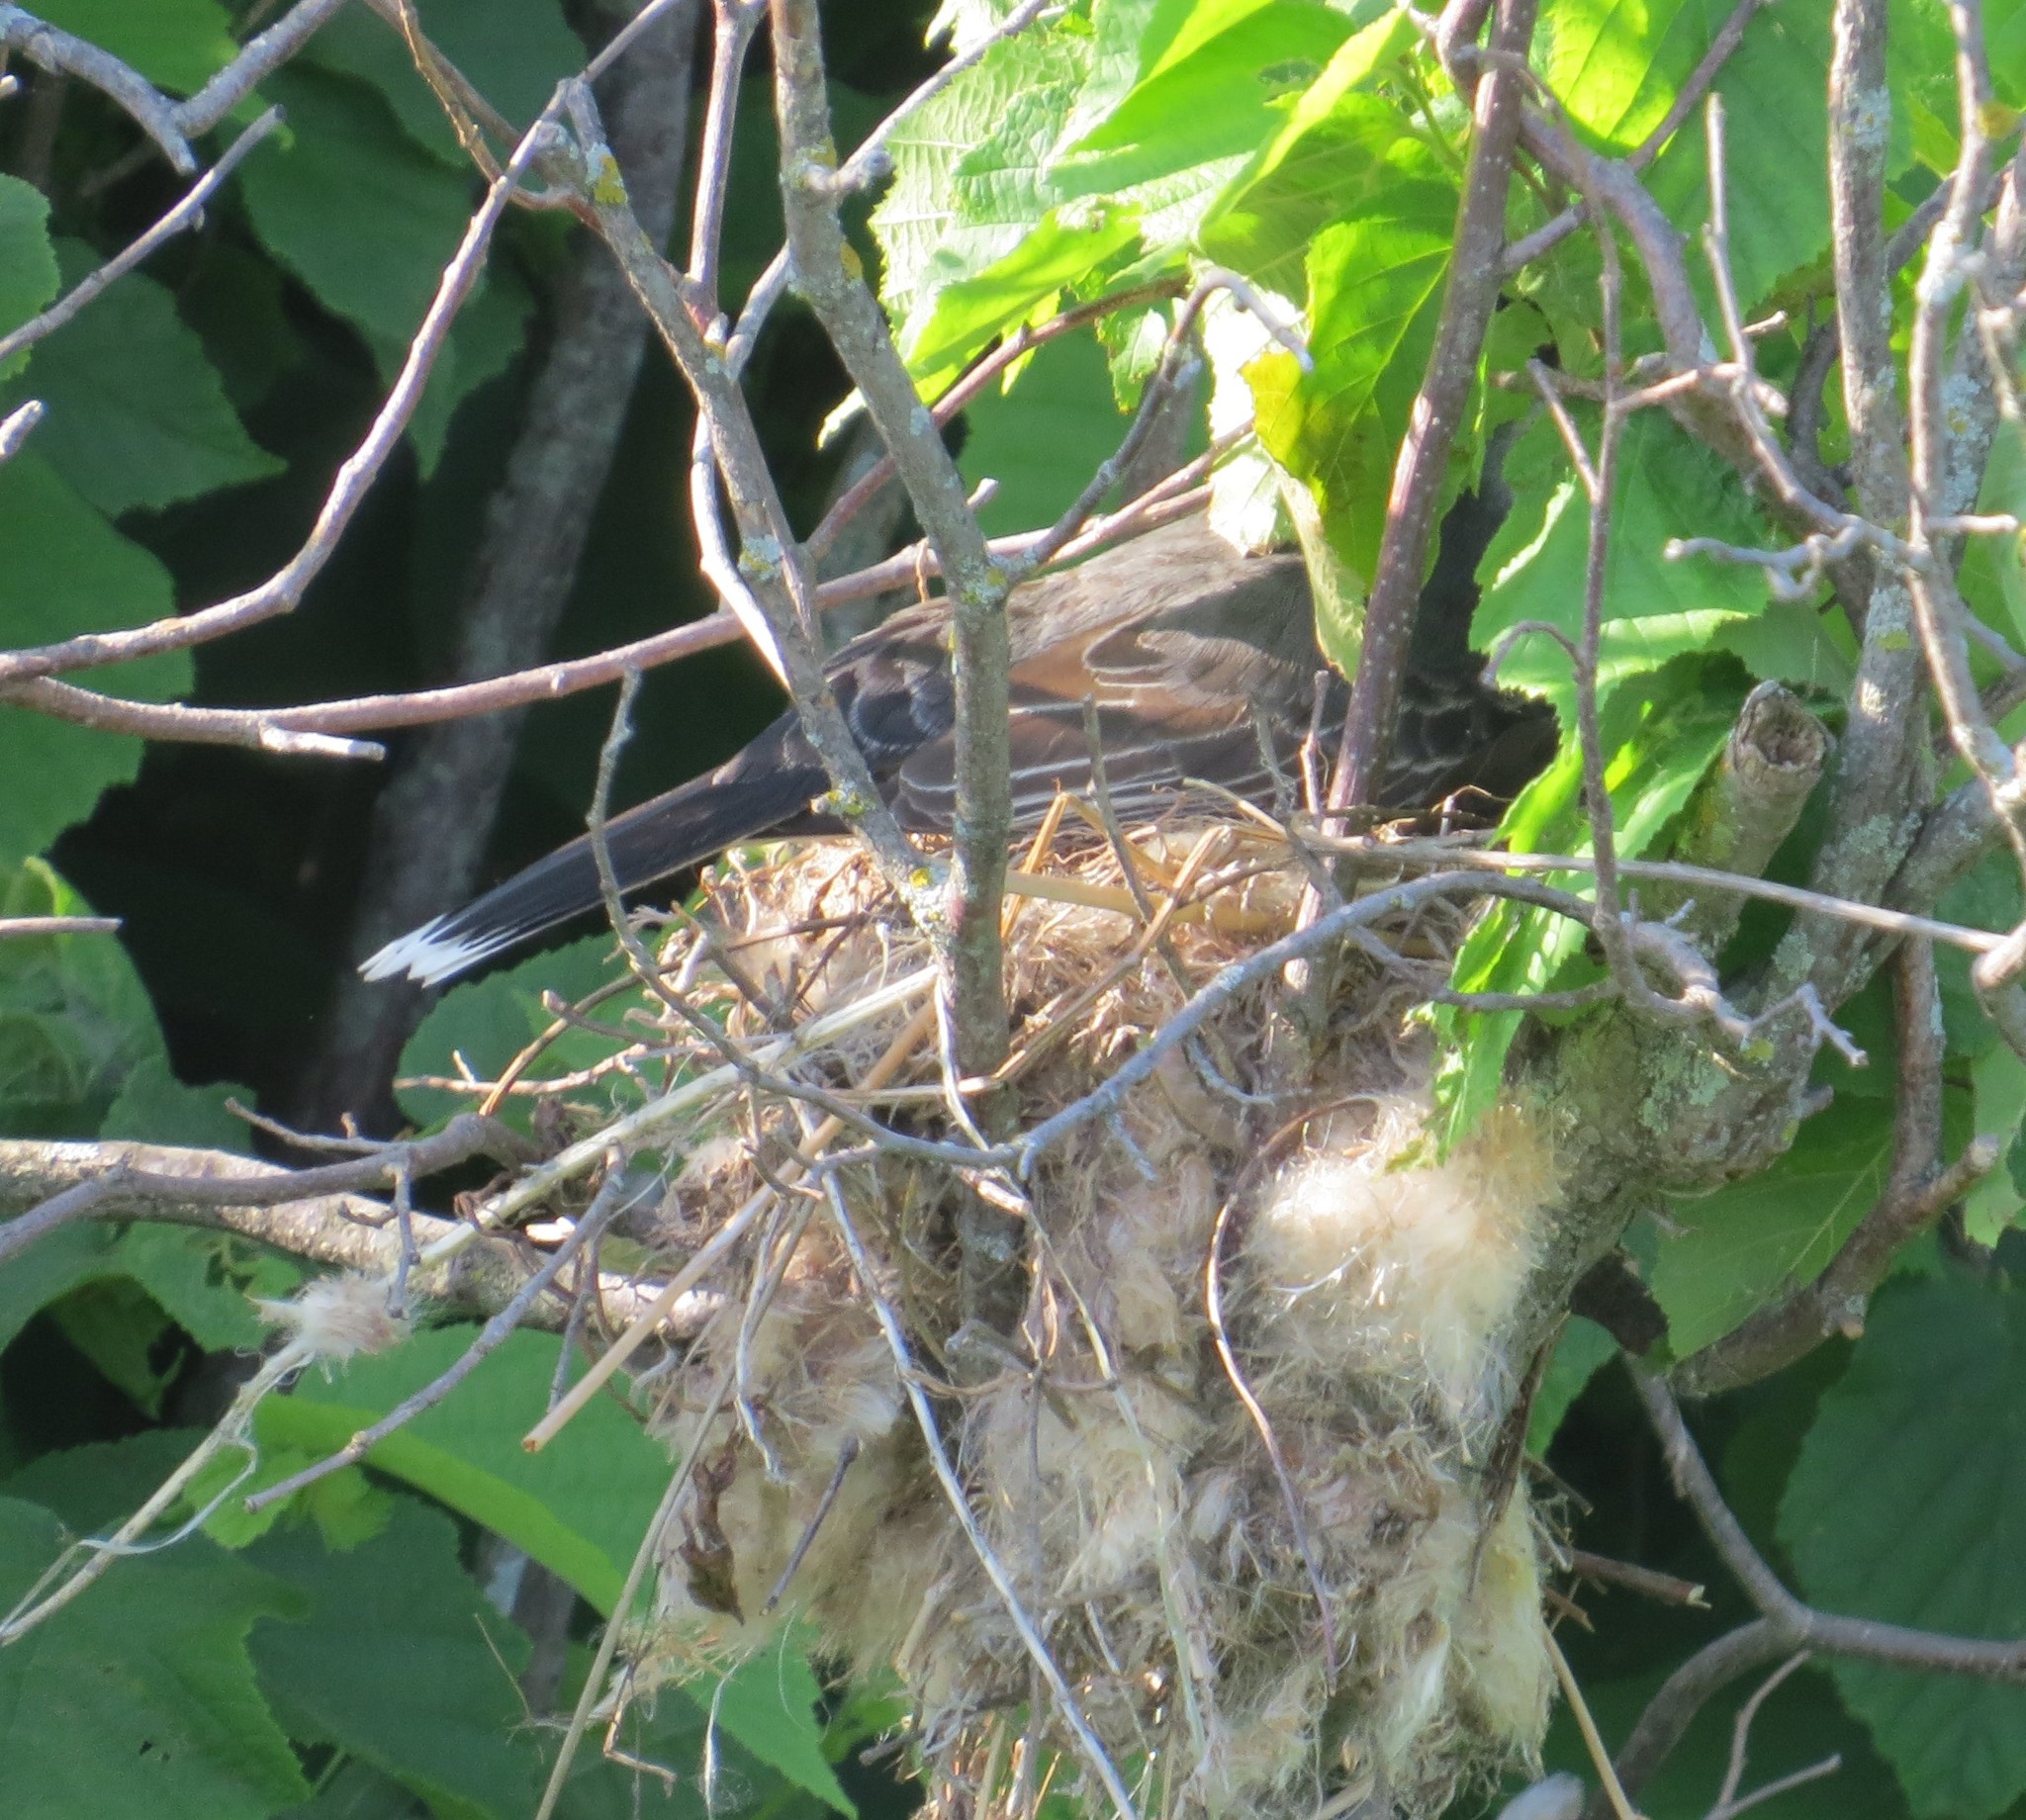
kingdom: Animalia
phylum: Chordata
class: Aves
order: Passeriformes
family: Tyrannidae
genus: Tyrannus
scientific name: Tyrannus tyrannus
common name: Eastern kingbird
